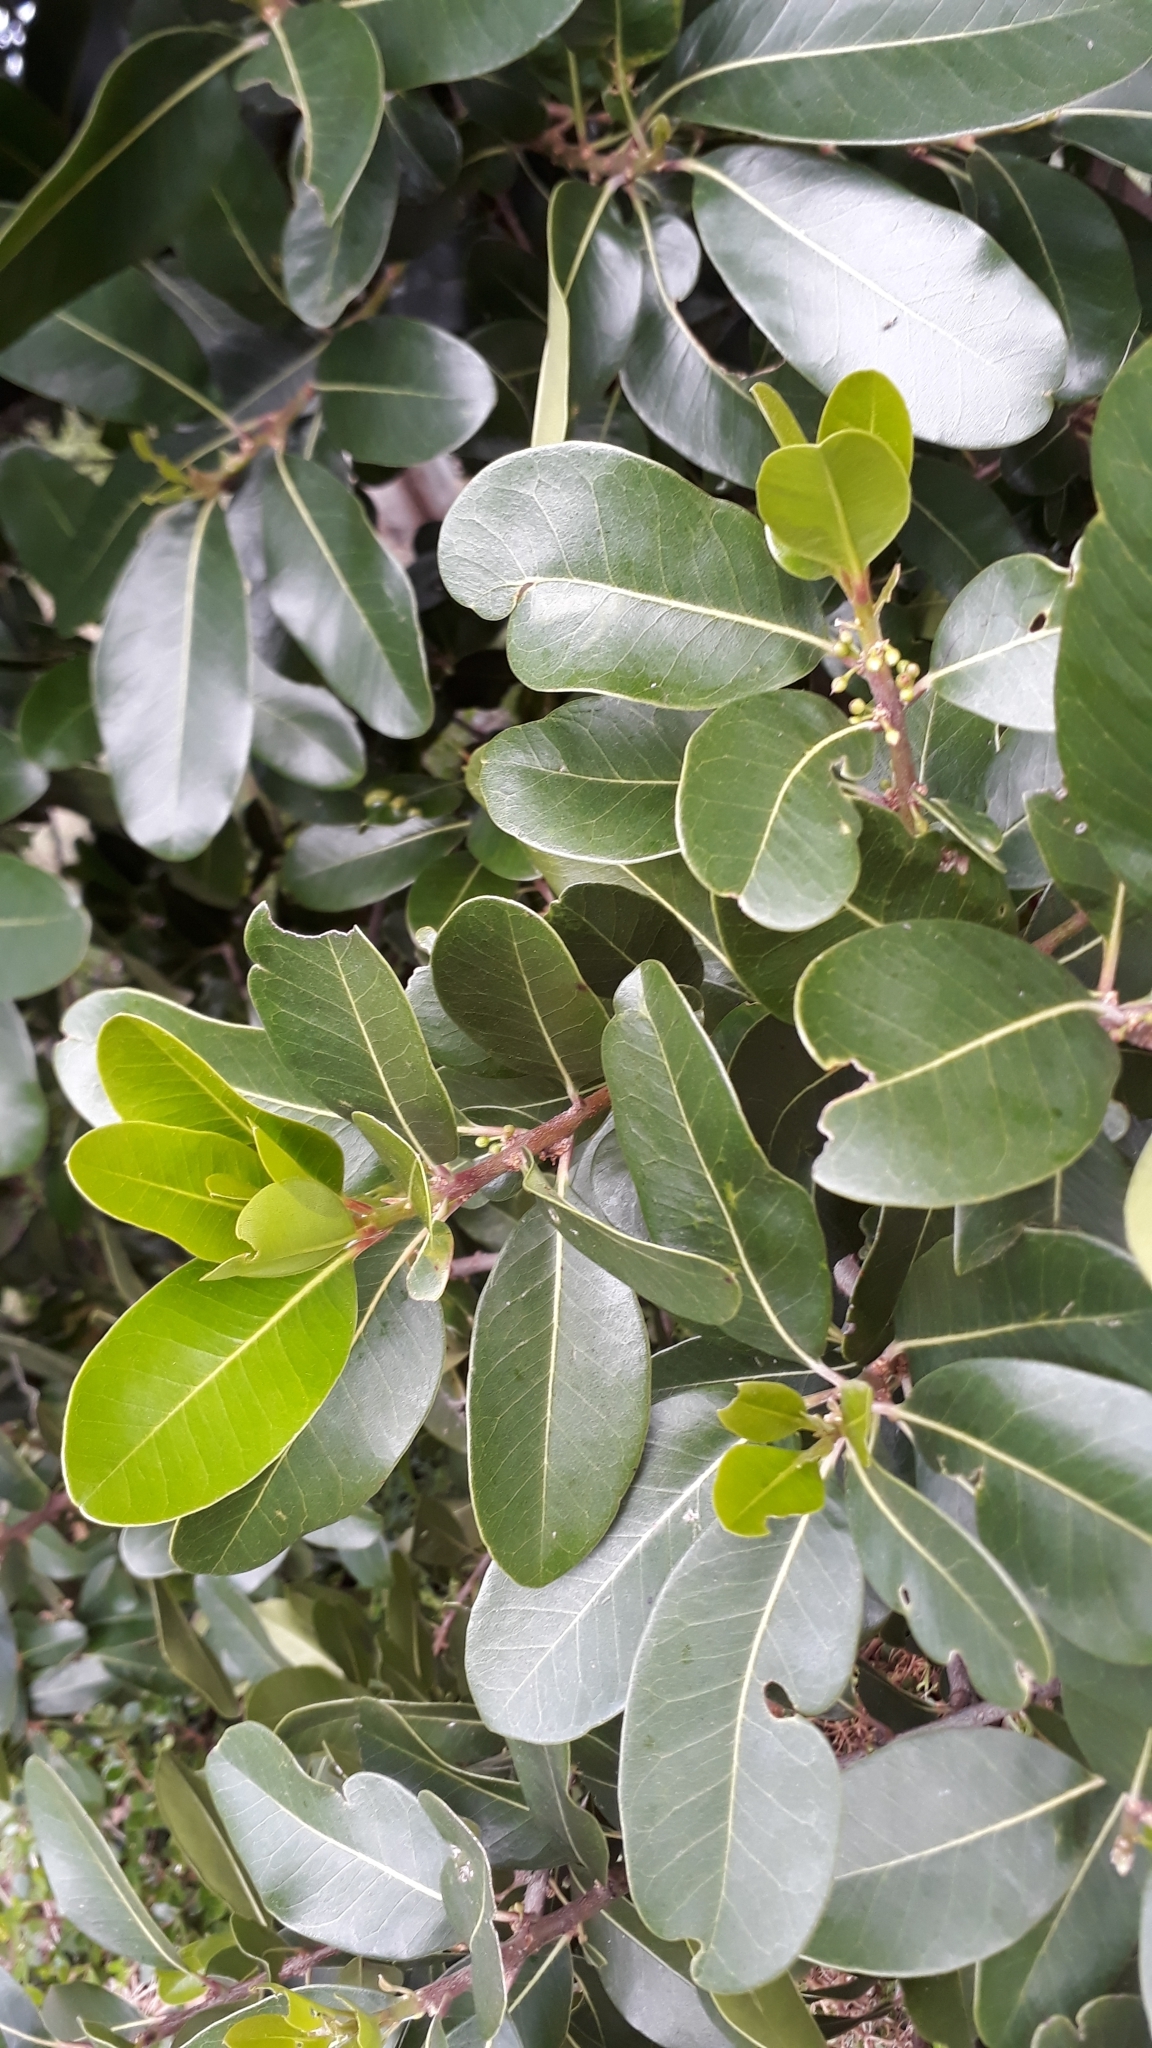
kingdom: Plantae
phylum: Tracheophyta
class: Magnoliopsida
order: Ericales
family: Sapotaceae
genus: Sideroxylon
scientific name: Sideroxylon inerme
